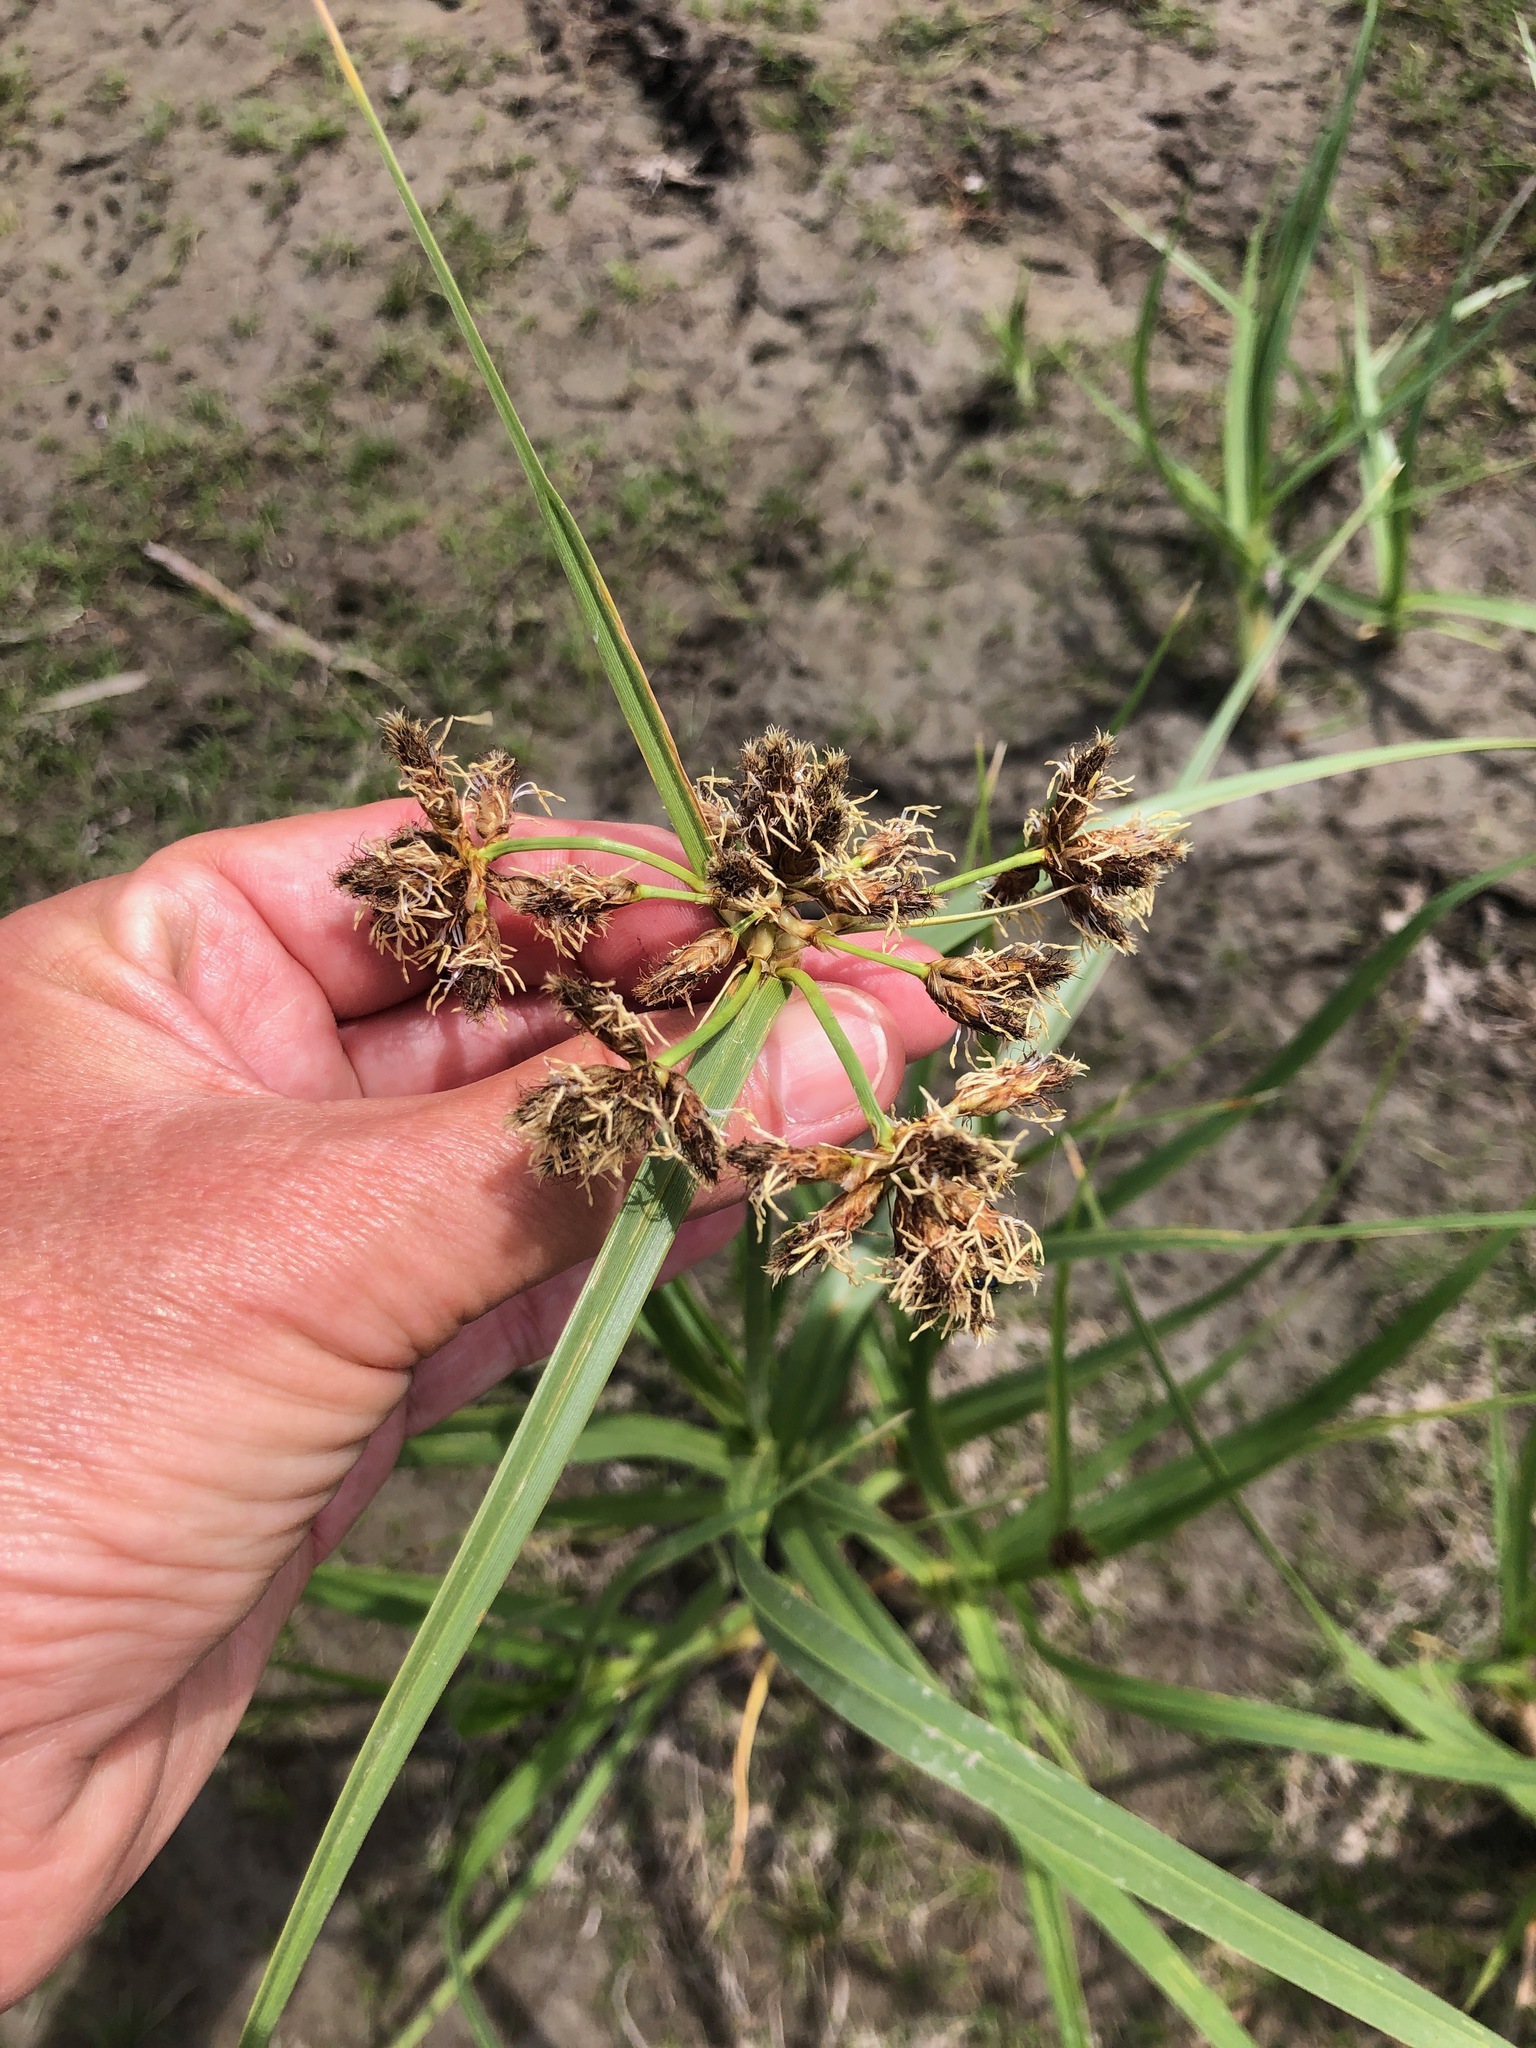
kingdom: Plantae
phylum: Tracheophyta
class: Liliopsida
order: Poales
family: Cyperaceae
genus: Bolboschoenus
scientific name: Bolboschoenus glaucus
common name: Tuberous bulrush
